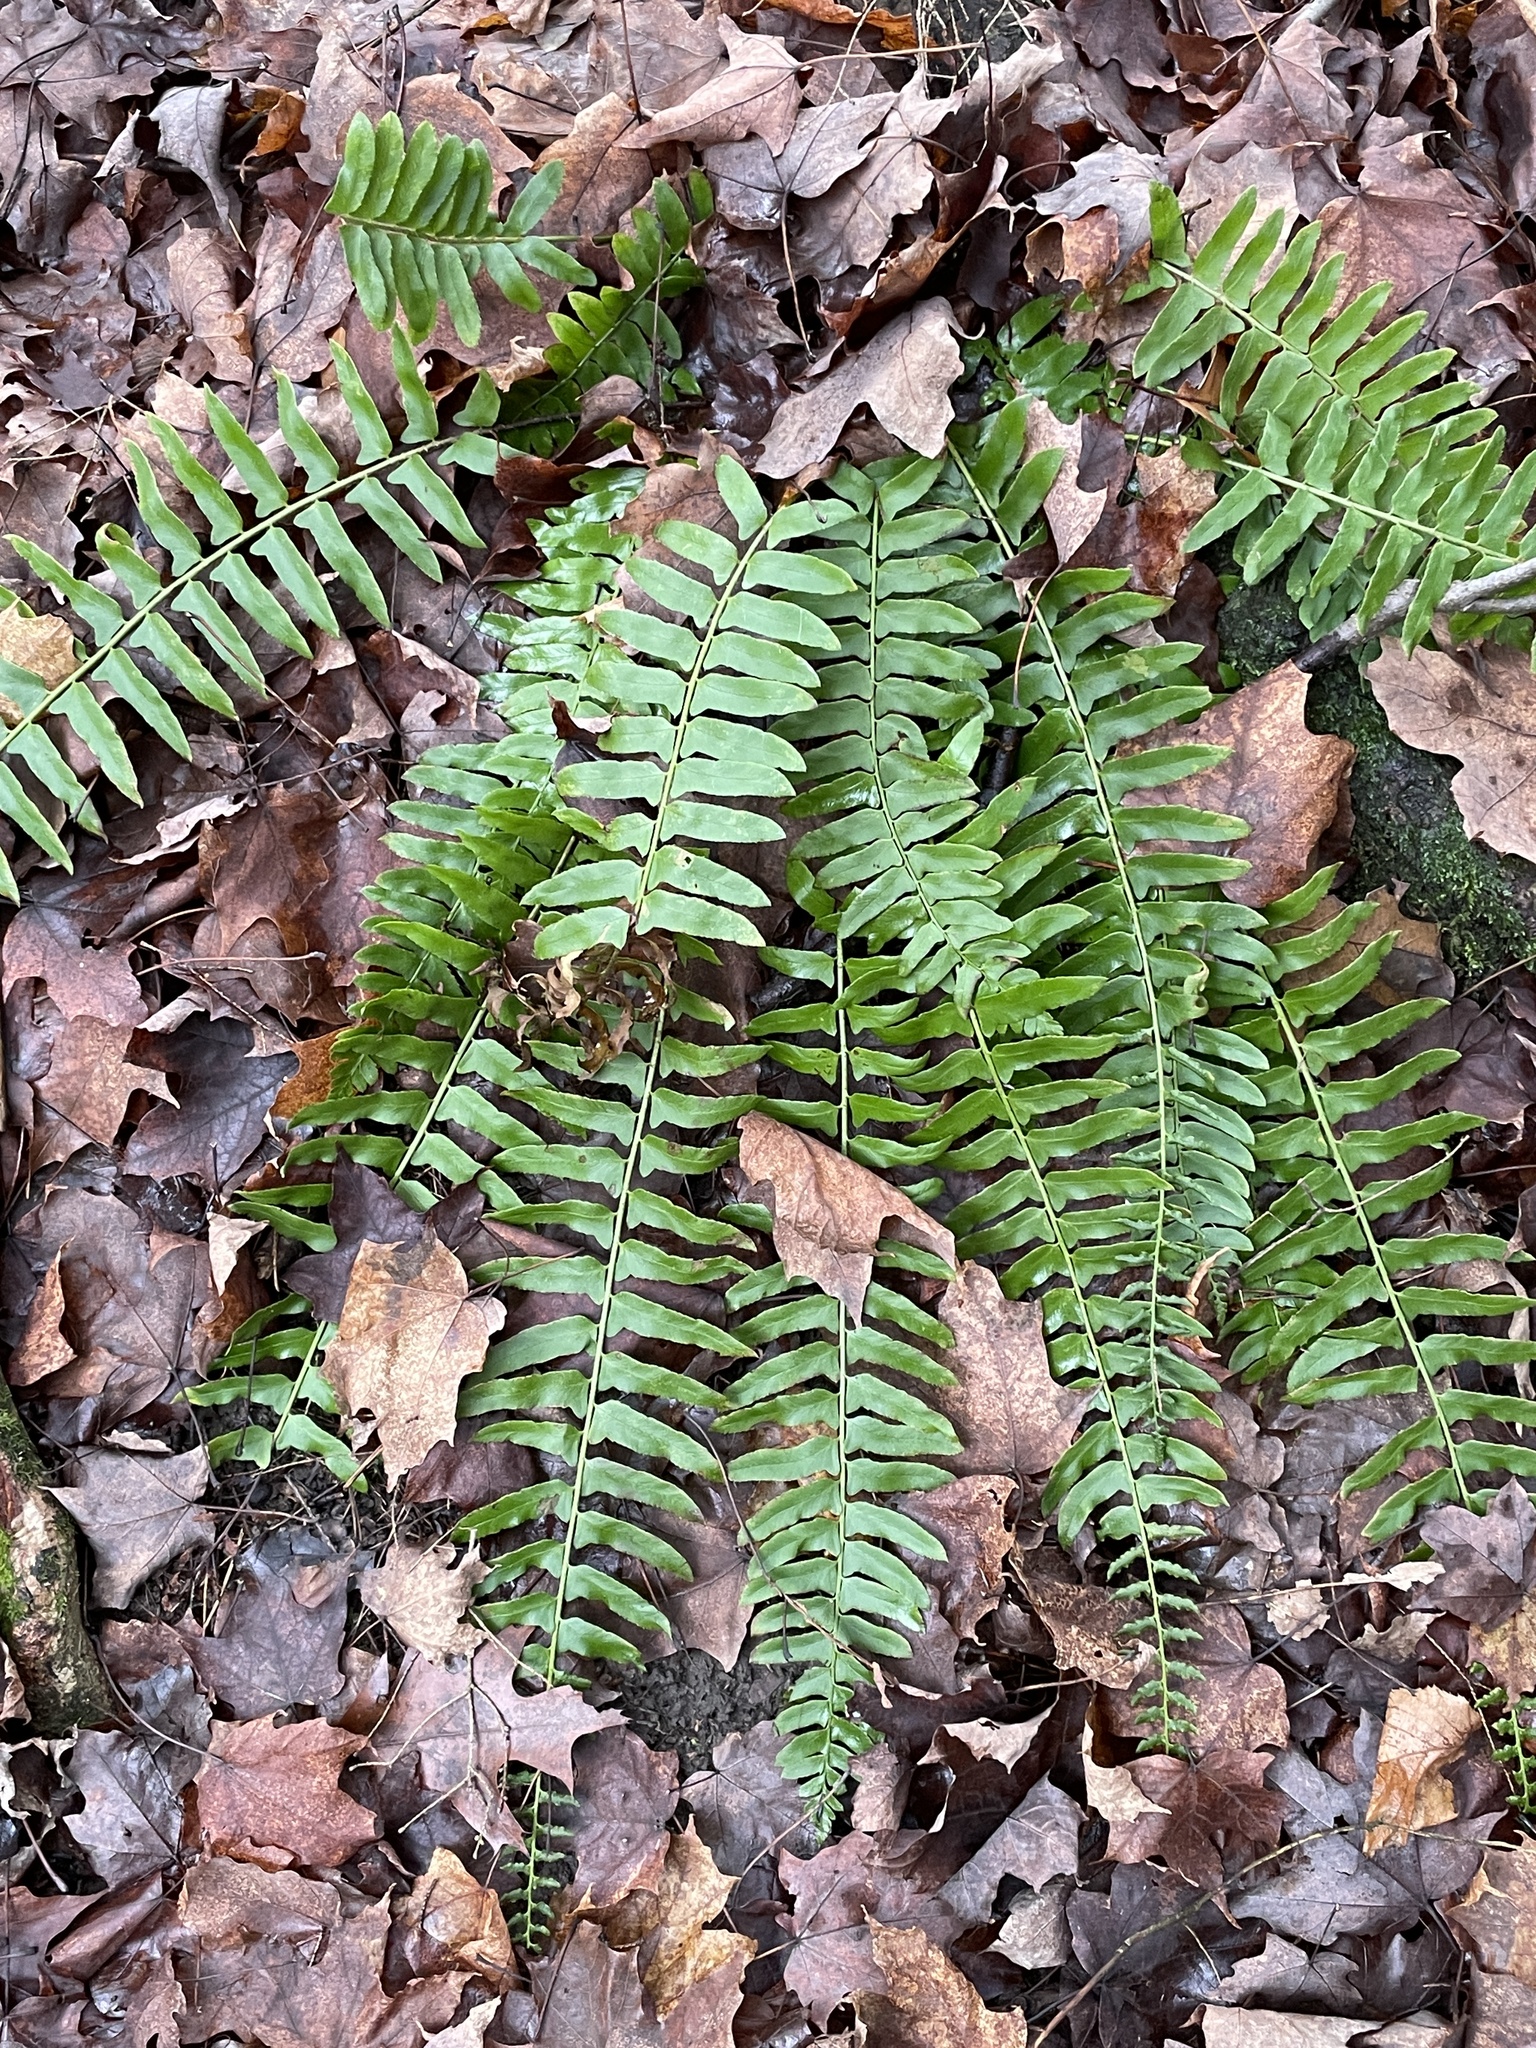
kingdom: Plantae
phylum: Tracheophyta
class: Polypodiopsida
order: Polypodiales
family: Dryopteridaceae
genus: Polystichum
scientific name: Polystichum acrostichoides
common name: Christmas fern
